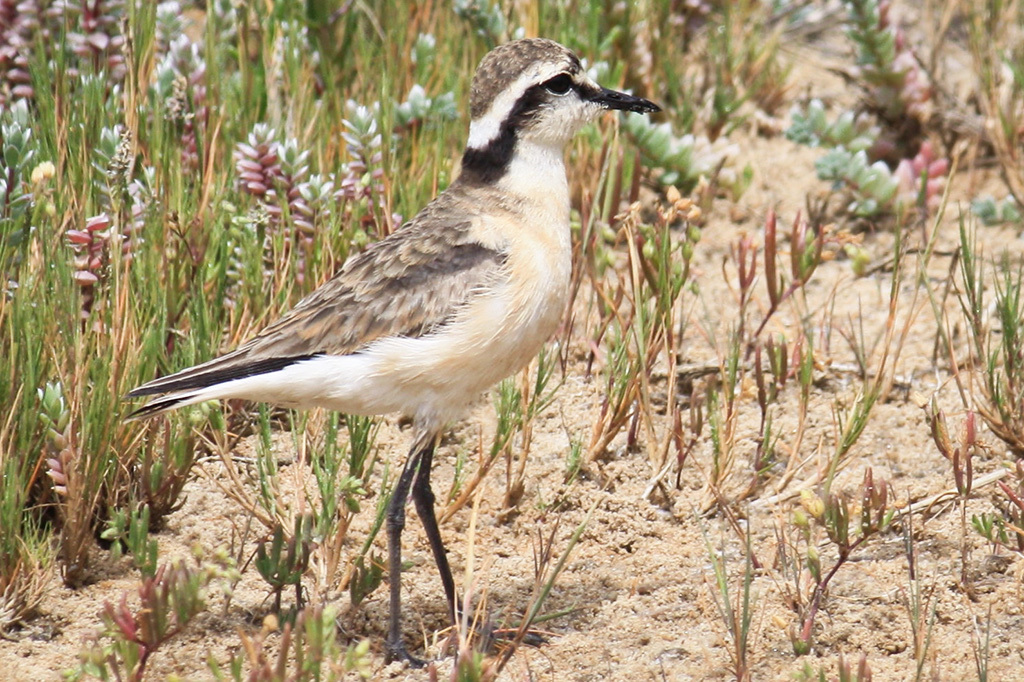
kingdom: Animalia
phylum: Chordata
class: Aves
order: Charadriiformes
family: Charadriidae
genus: Anarhynchus
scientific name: Anarhynchus
